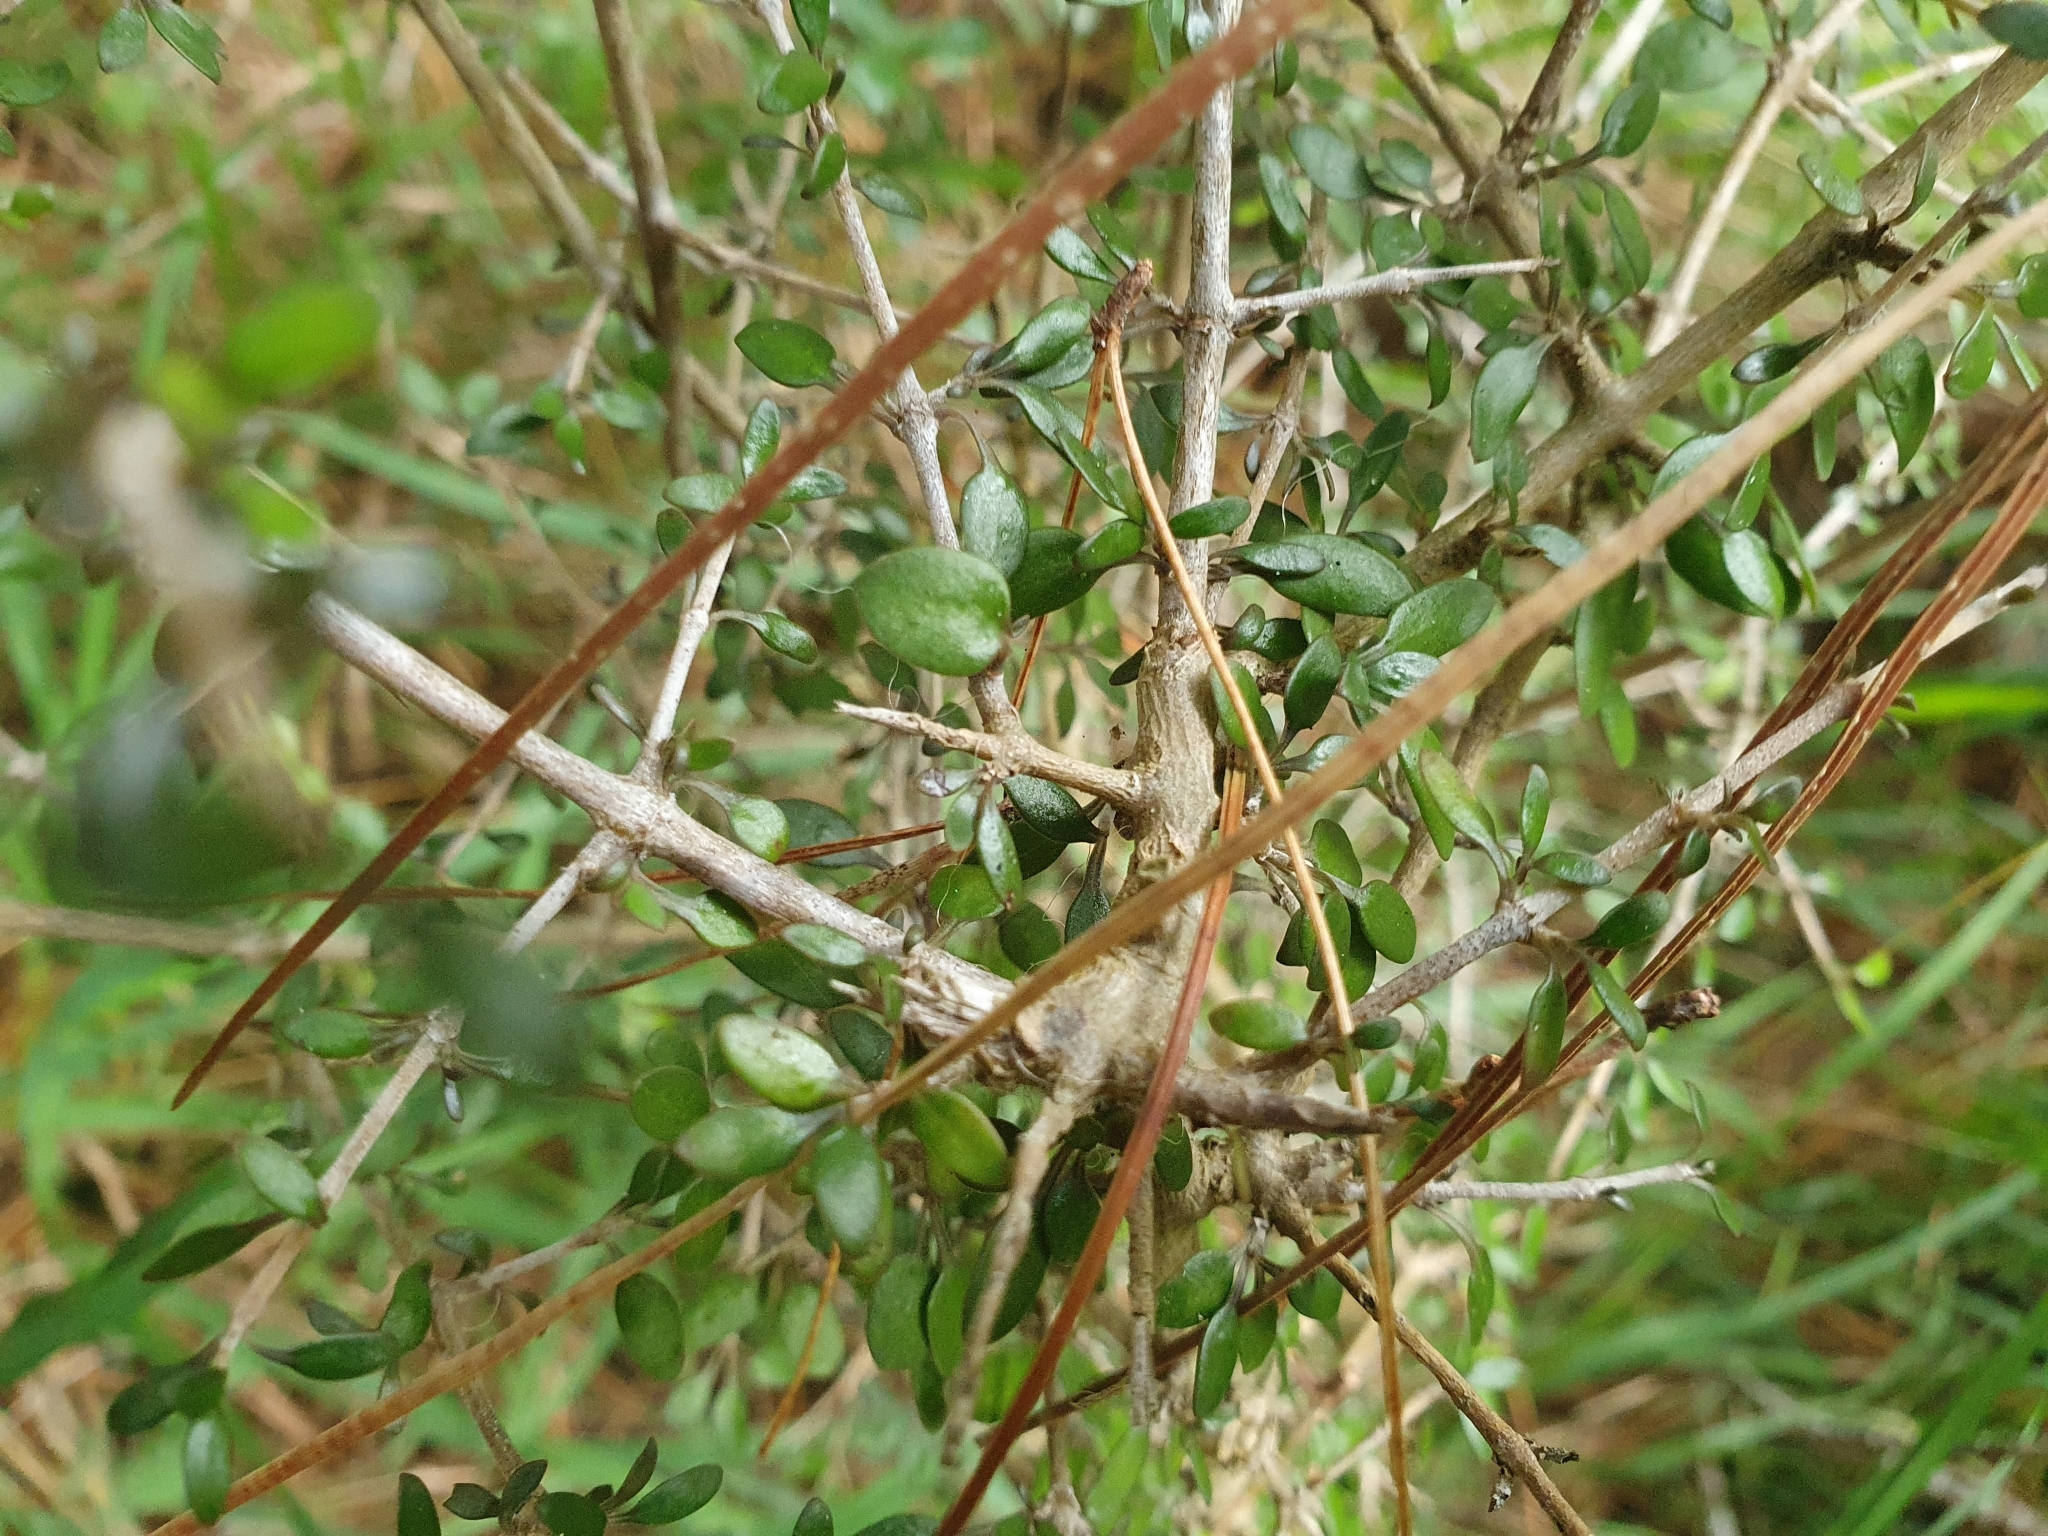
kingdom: Plantae
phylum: Tracheophyta
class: Magnoliopsida
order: Gentianales
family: Rubiaceae
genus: Coprosma
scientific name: Coprosma propinqua
